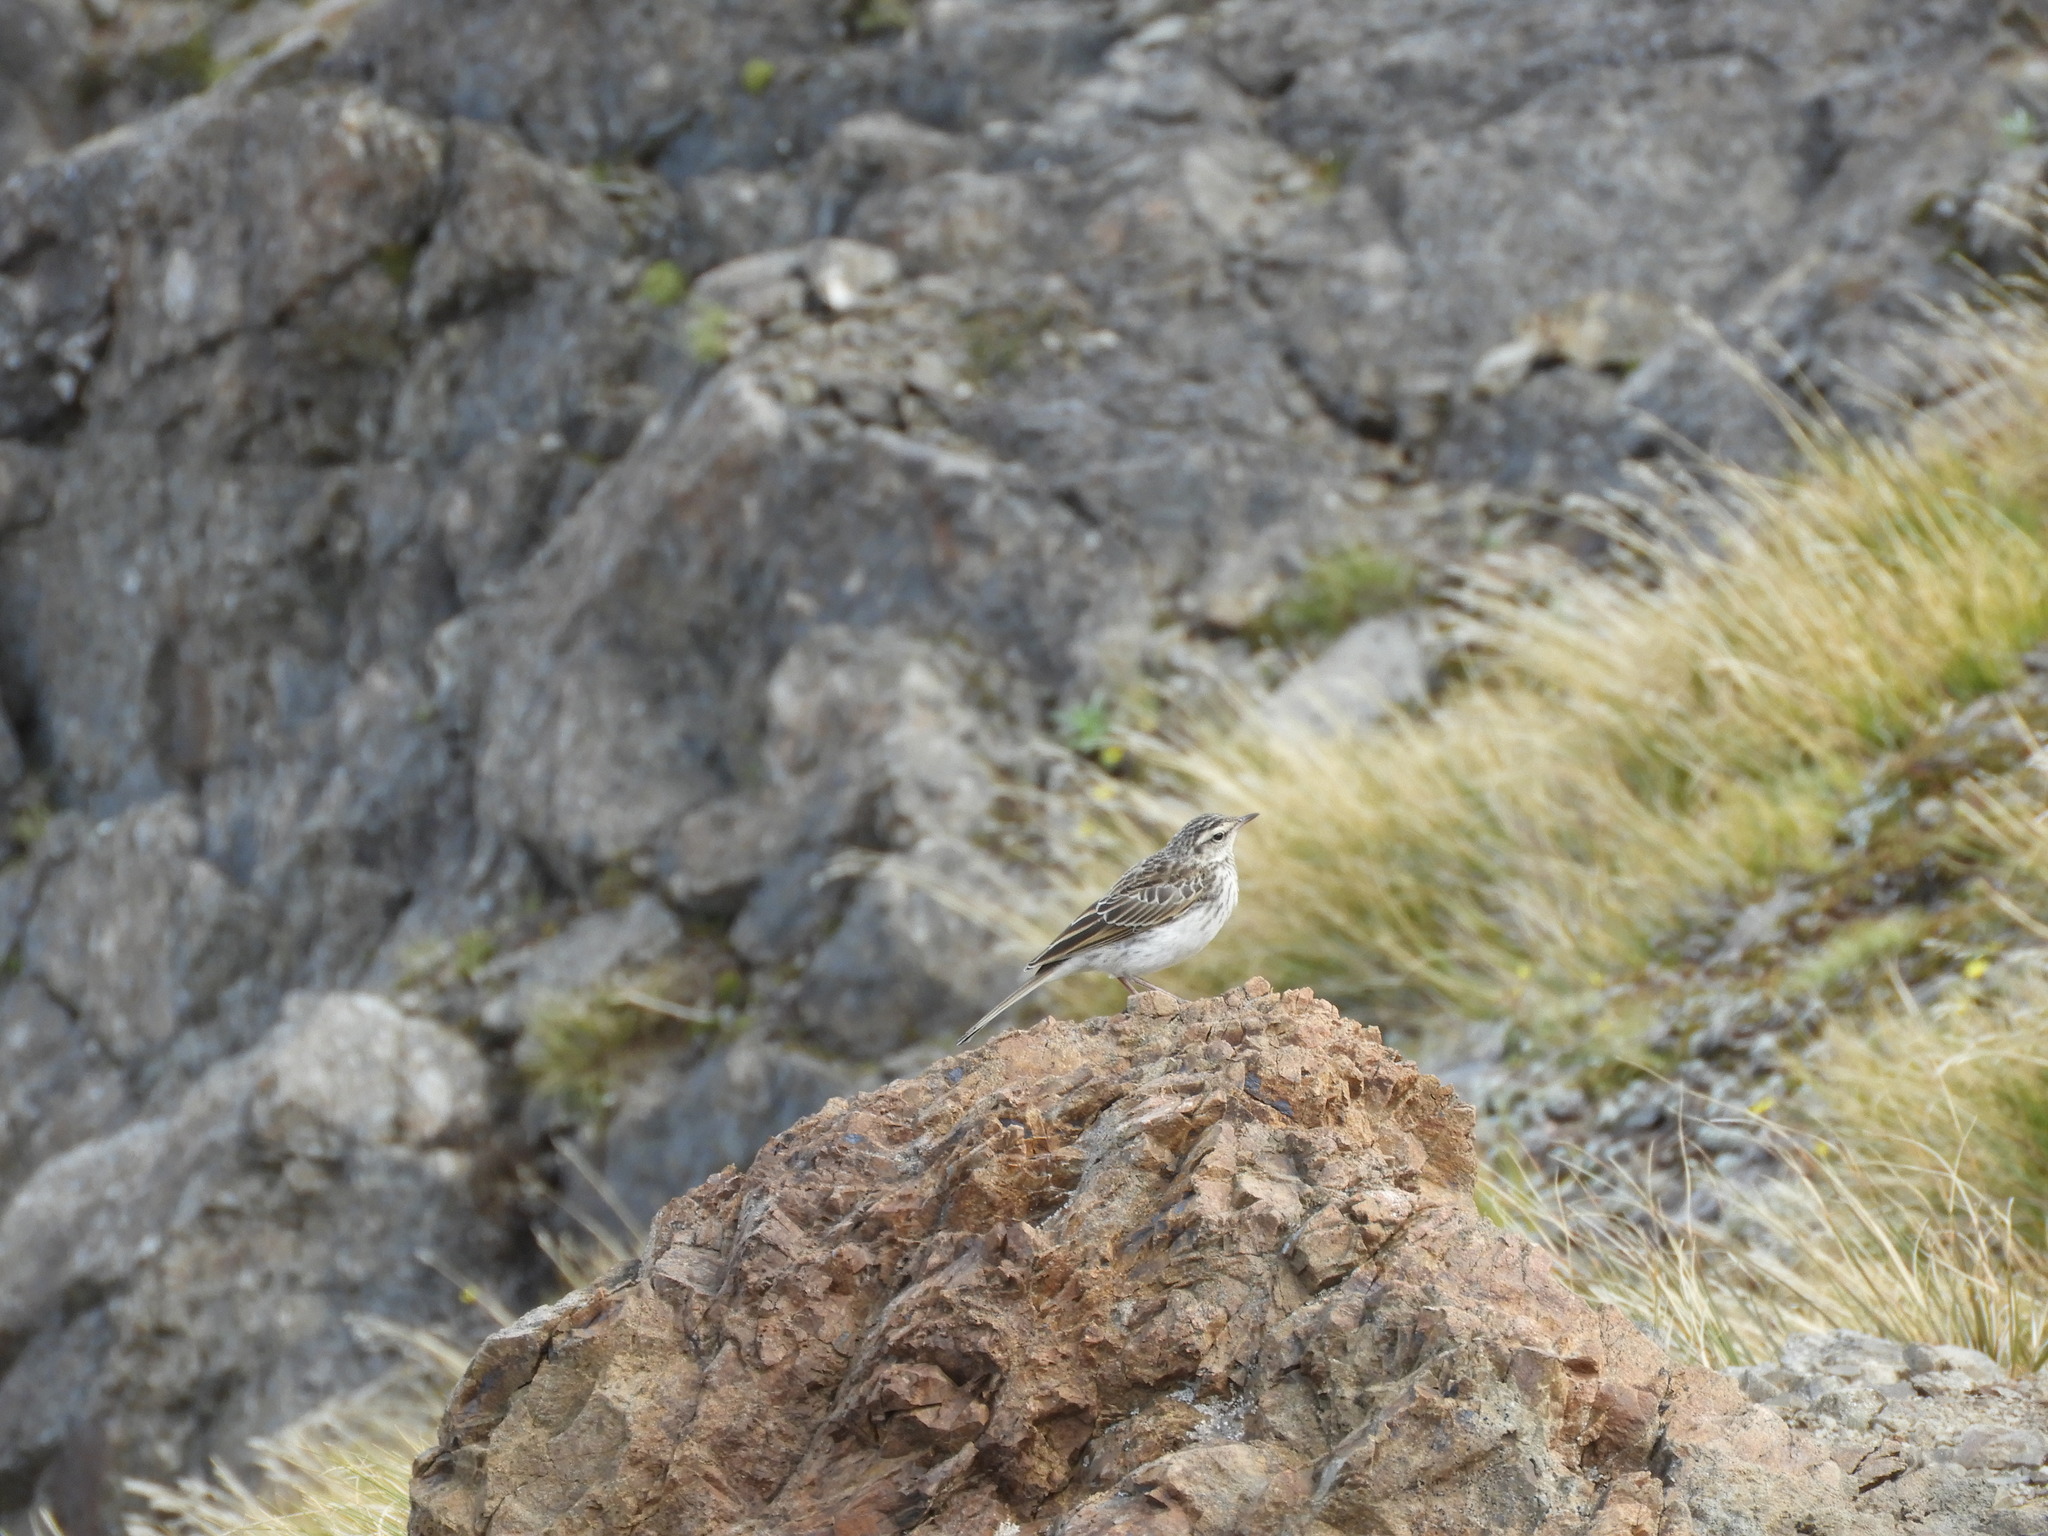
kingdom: Animalia
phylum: Chordata
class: Aves
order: Passeriformes
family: Motacillidae
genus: Anthus
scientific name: Anthus novaeseelandiae
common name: New zealand pipit
